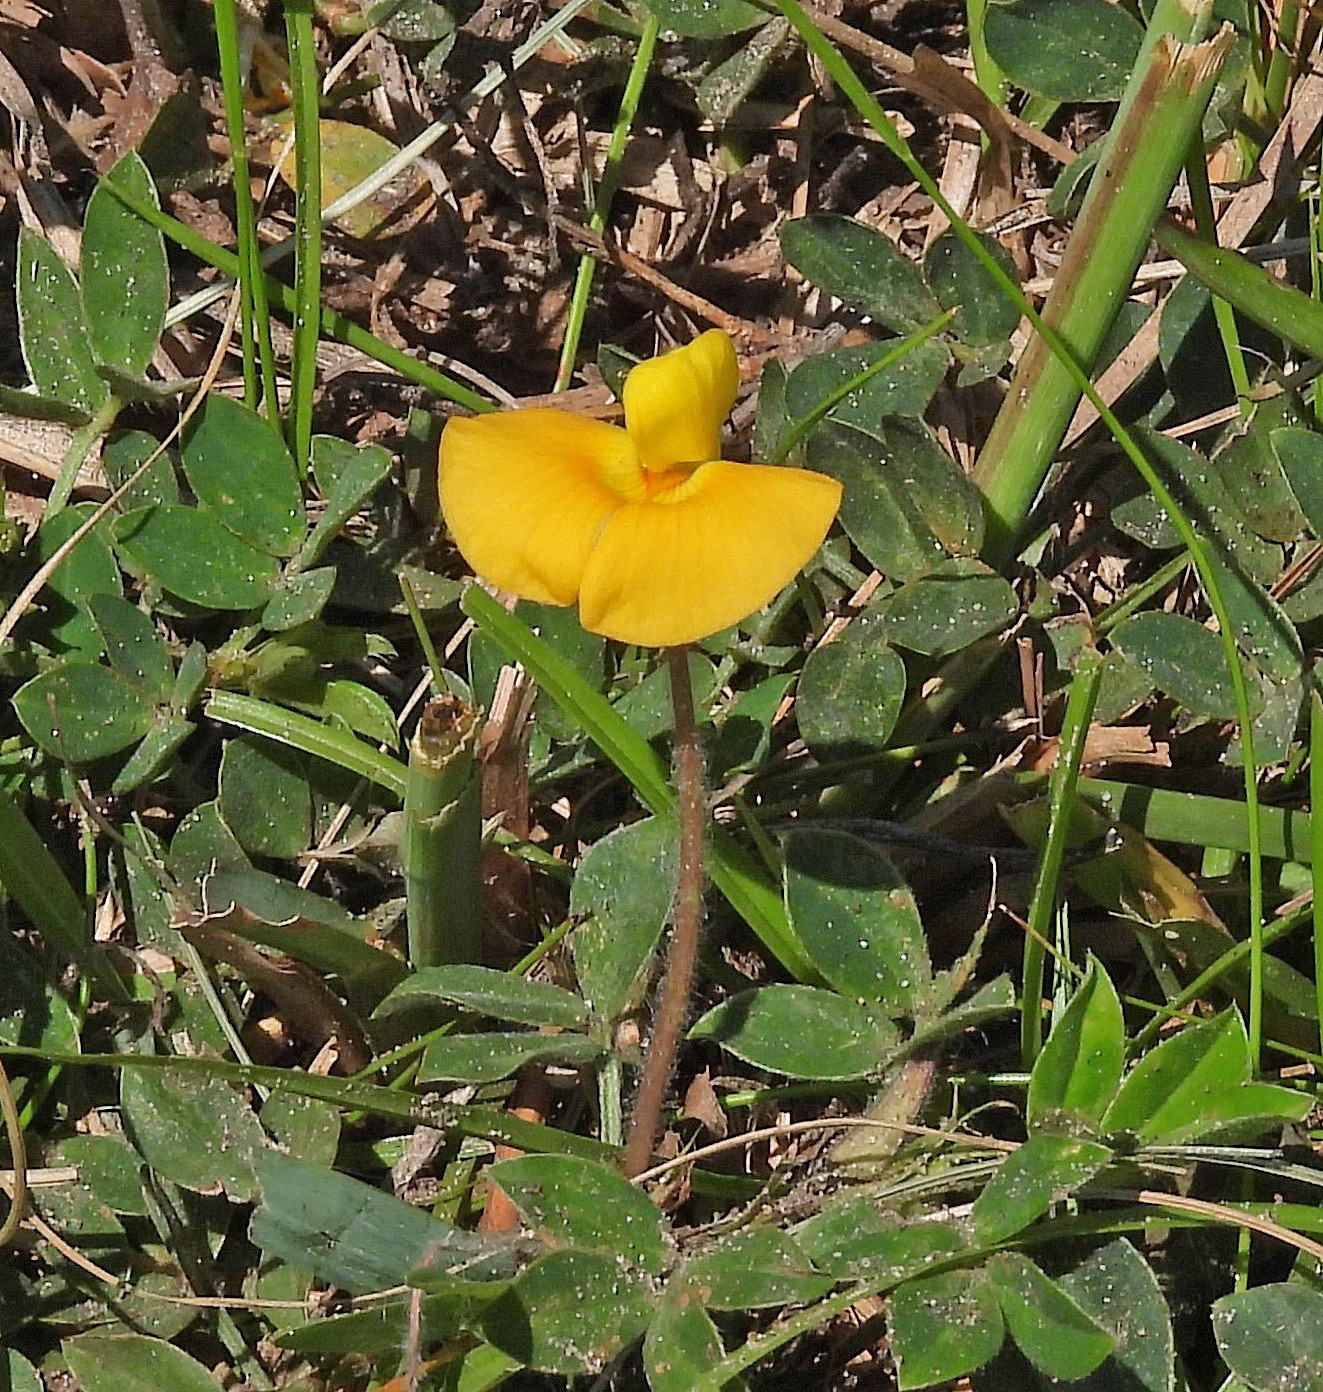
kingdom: Plantae
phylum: Tracheophyta
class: Magnoliopsida
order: Fabales
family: Fabaceae
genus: Arachis
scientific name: Arachis burkartii
